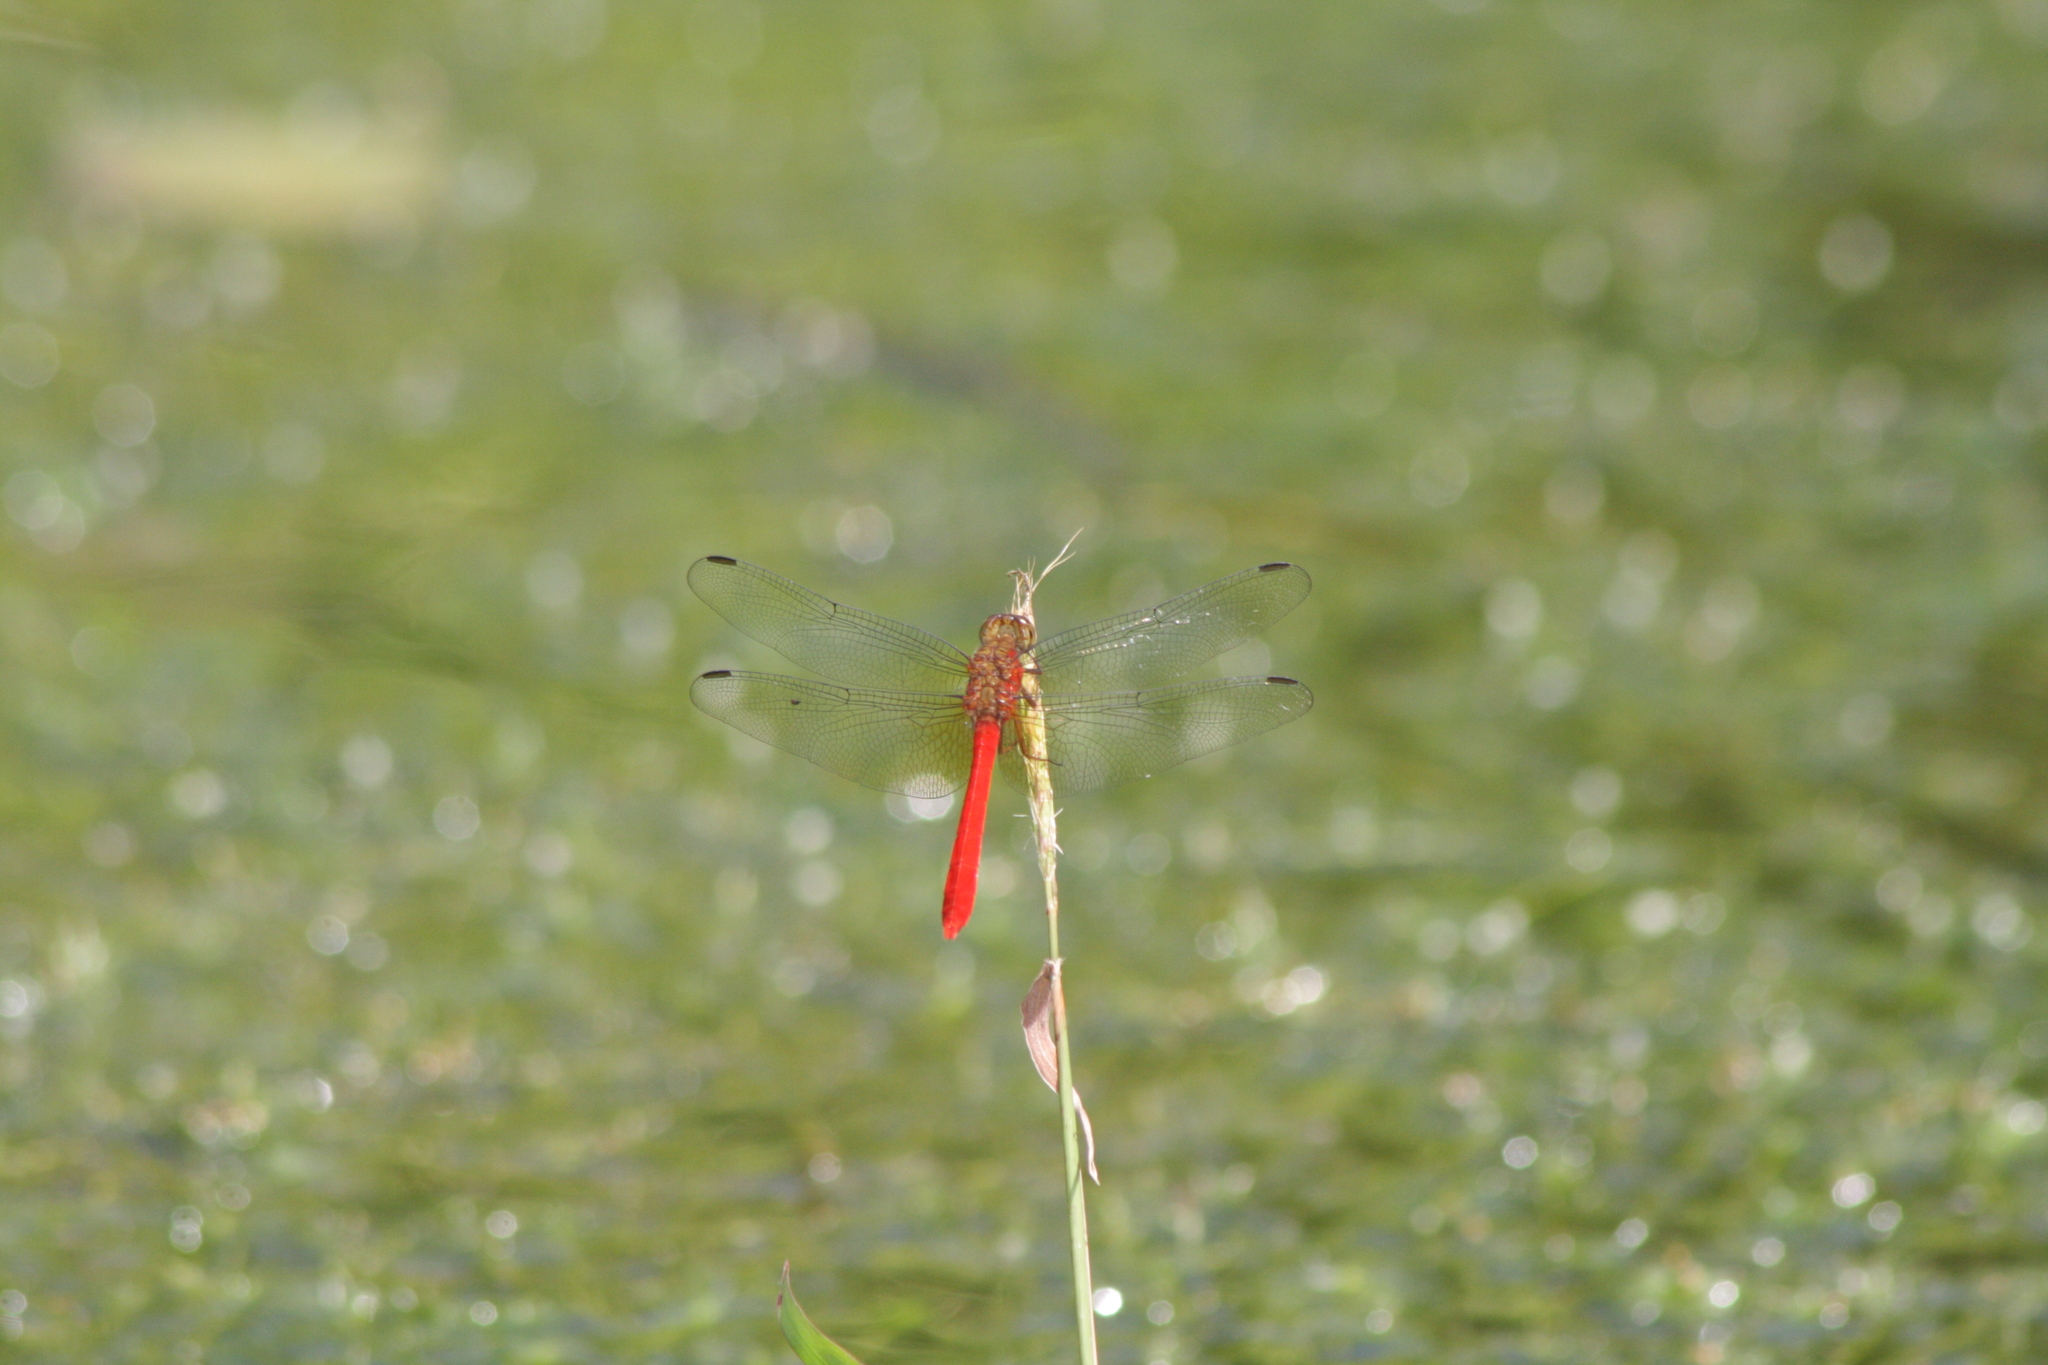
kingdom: Animalia
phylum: Arthropoda
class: Insecta
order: Odonata
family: Libellulidae
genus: Rhodopygia
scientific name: Rhodopygia hinei
